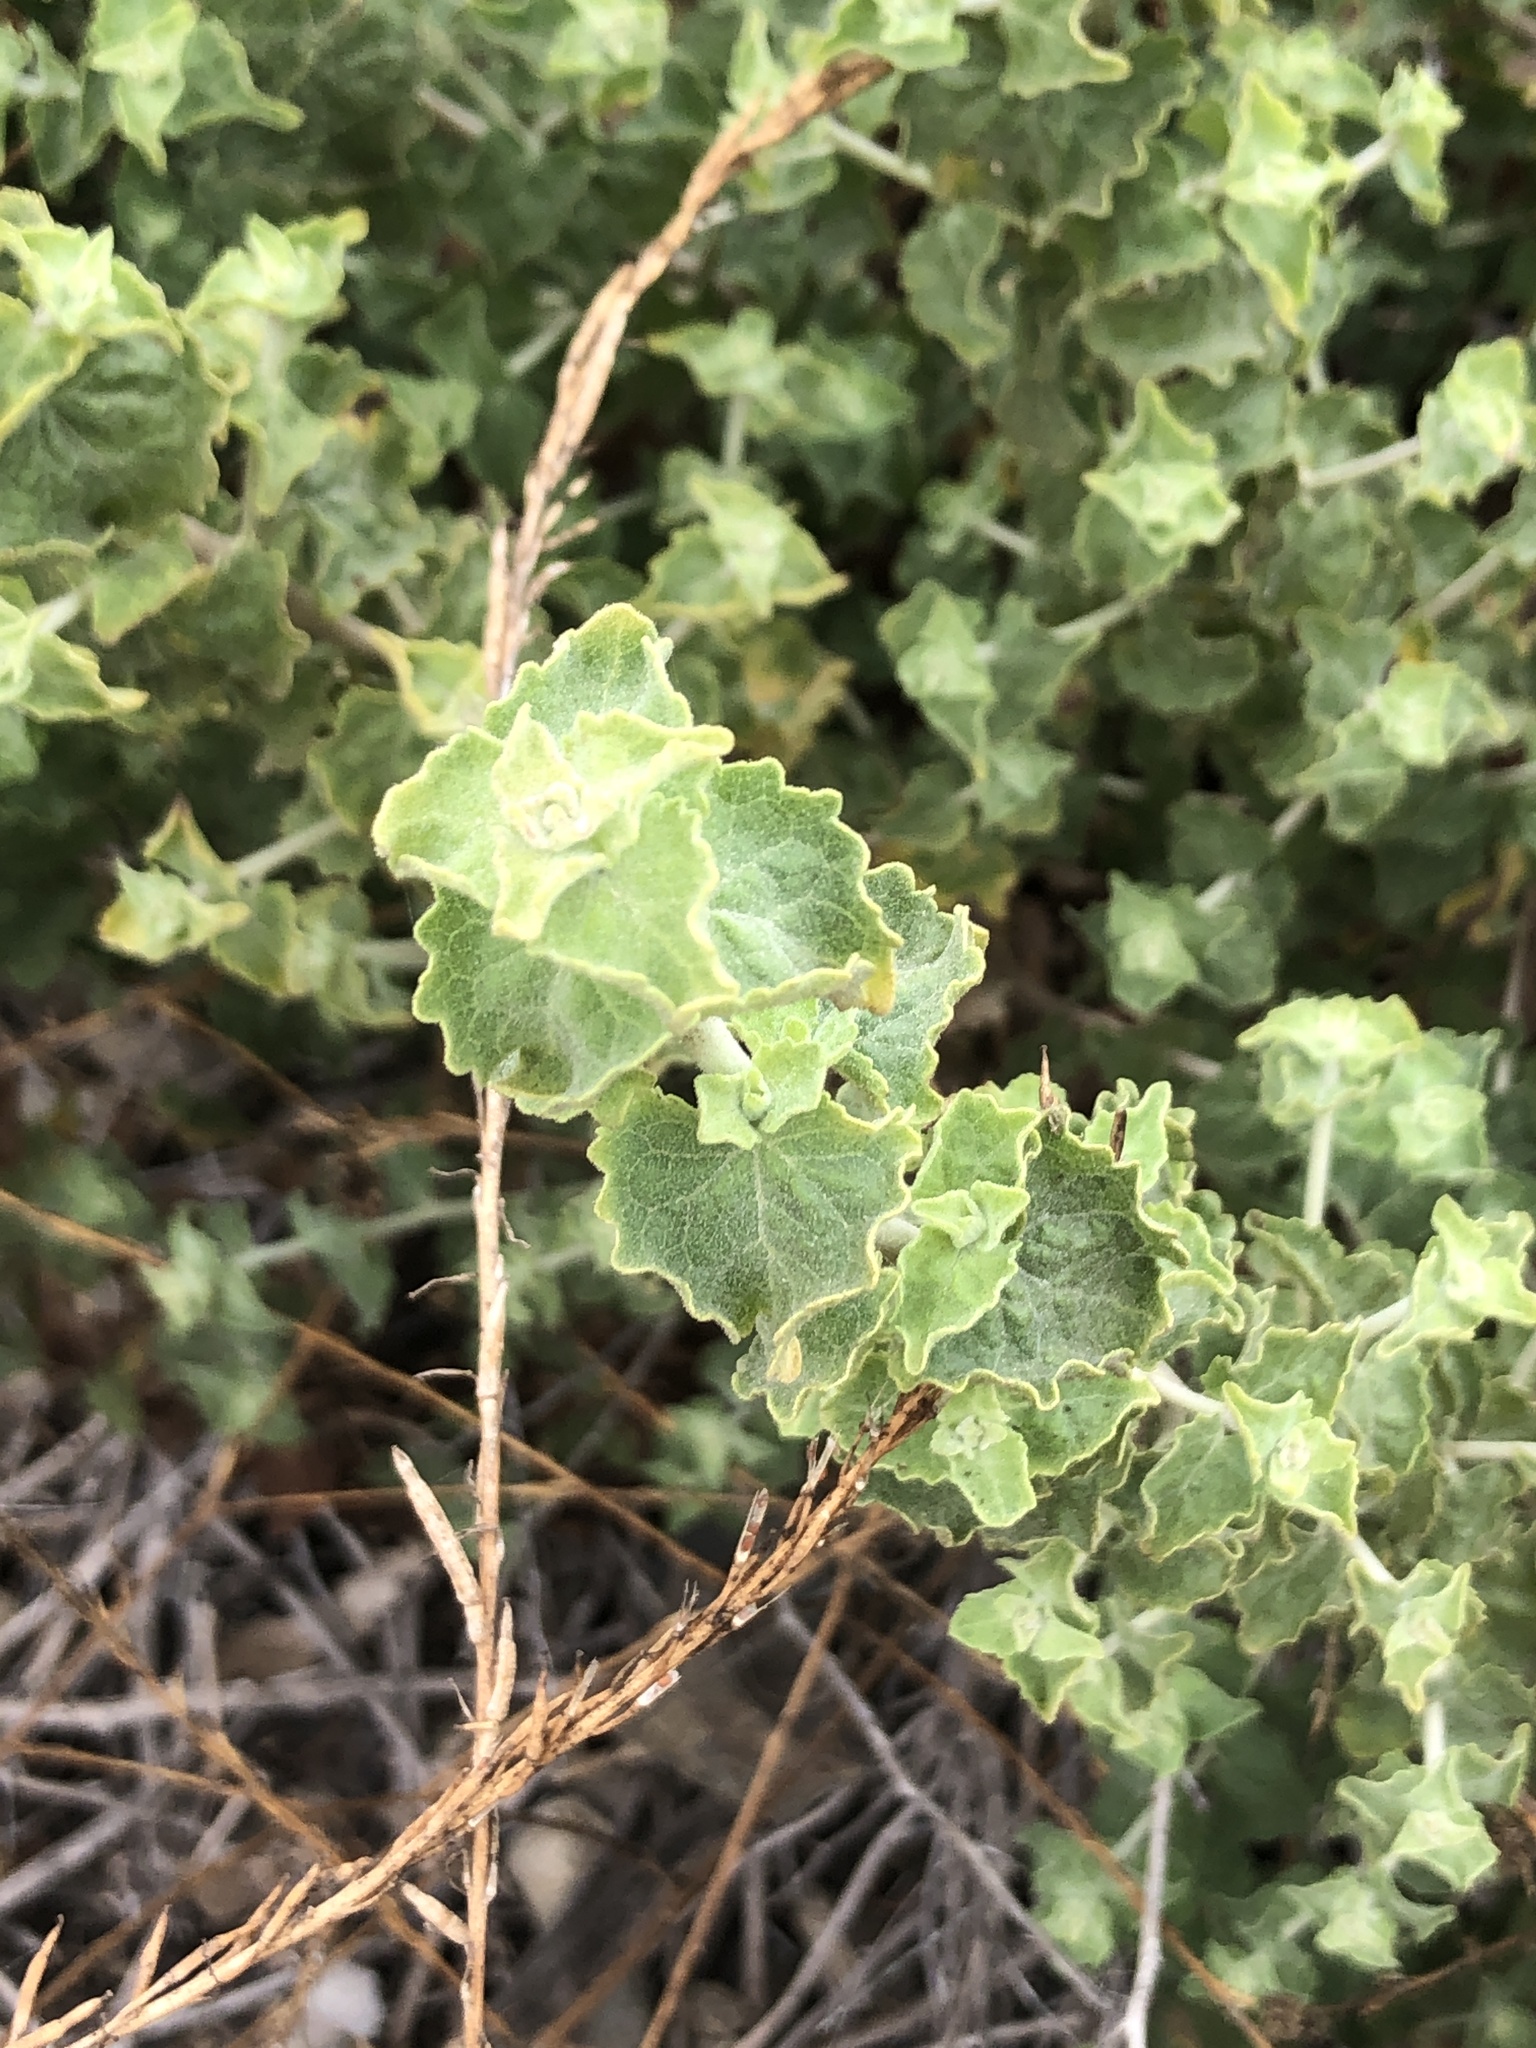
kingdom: Plantae
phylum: Tracheophyta
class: Magnoliopsida
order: Asterales
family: Asteraceae
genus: Brickellia
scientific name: Brickellia californica
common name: California brickellbush
